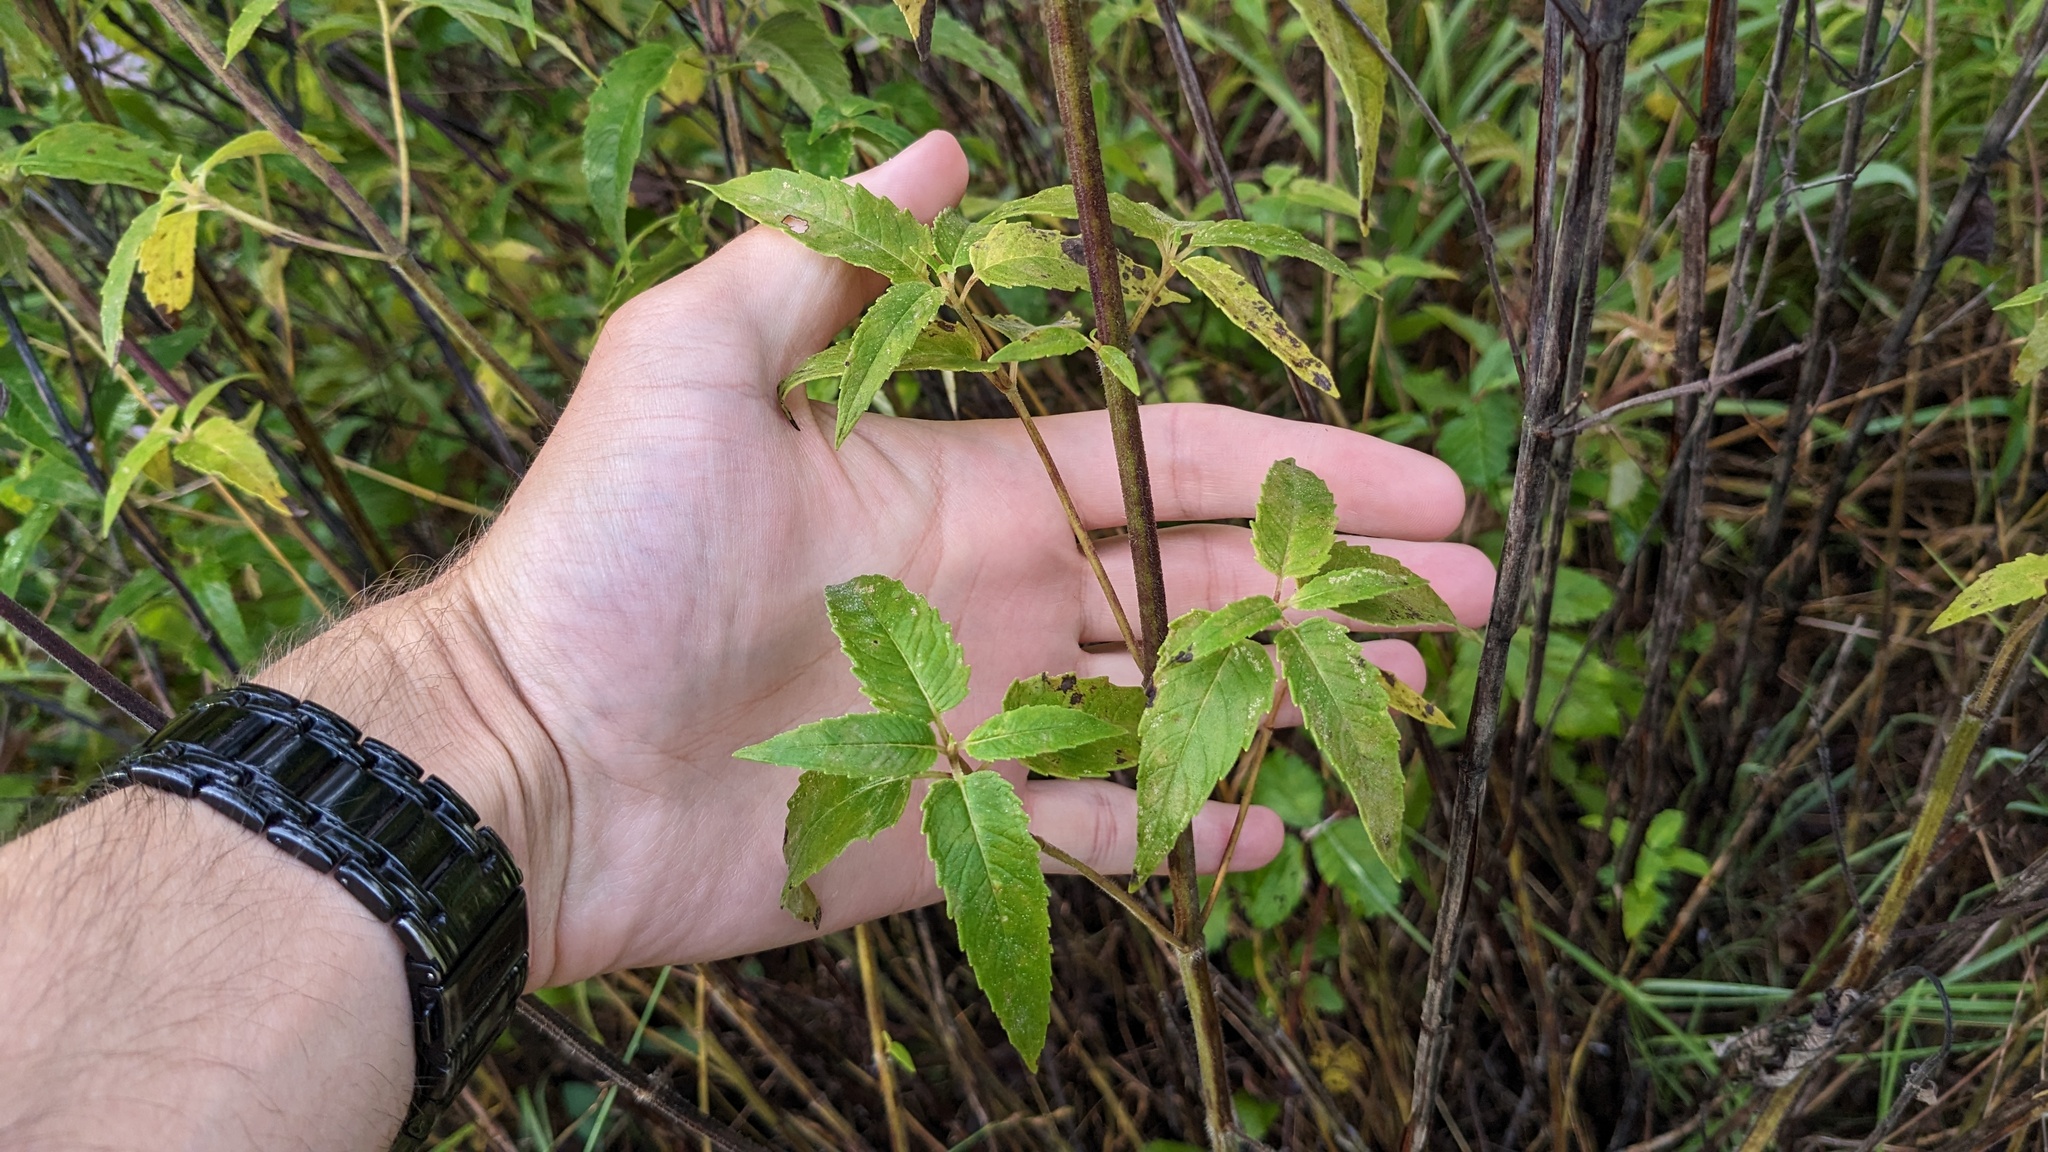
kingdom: Plantae
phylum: Tracheophyta
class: Magnoliopsida
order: Lamiales
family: Lamiaceae
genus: Monarda
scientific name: Monarda fistulosa
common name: Purple beebalm
